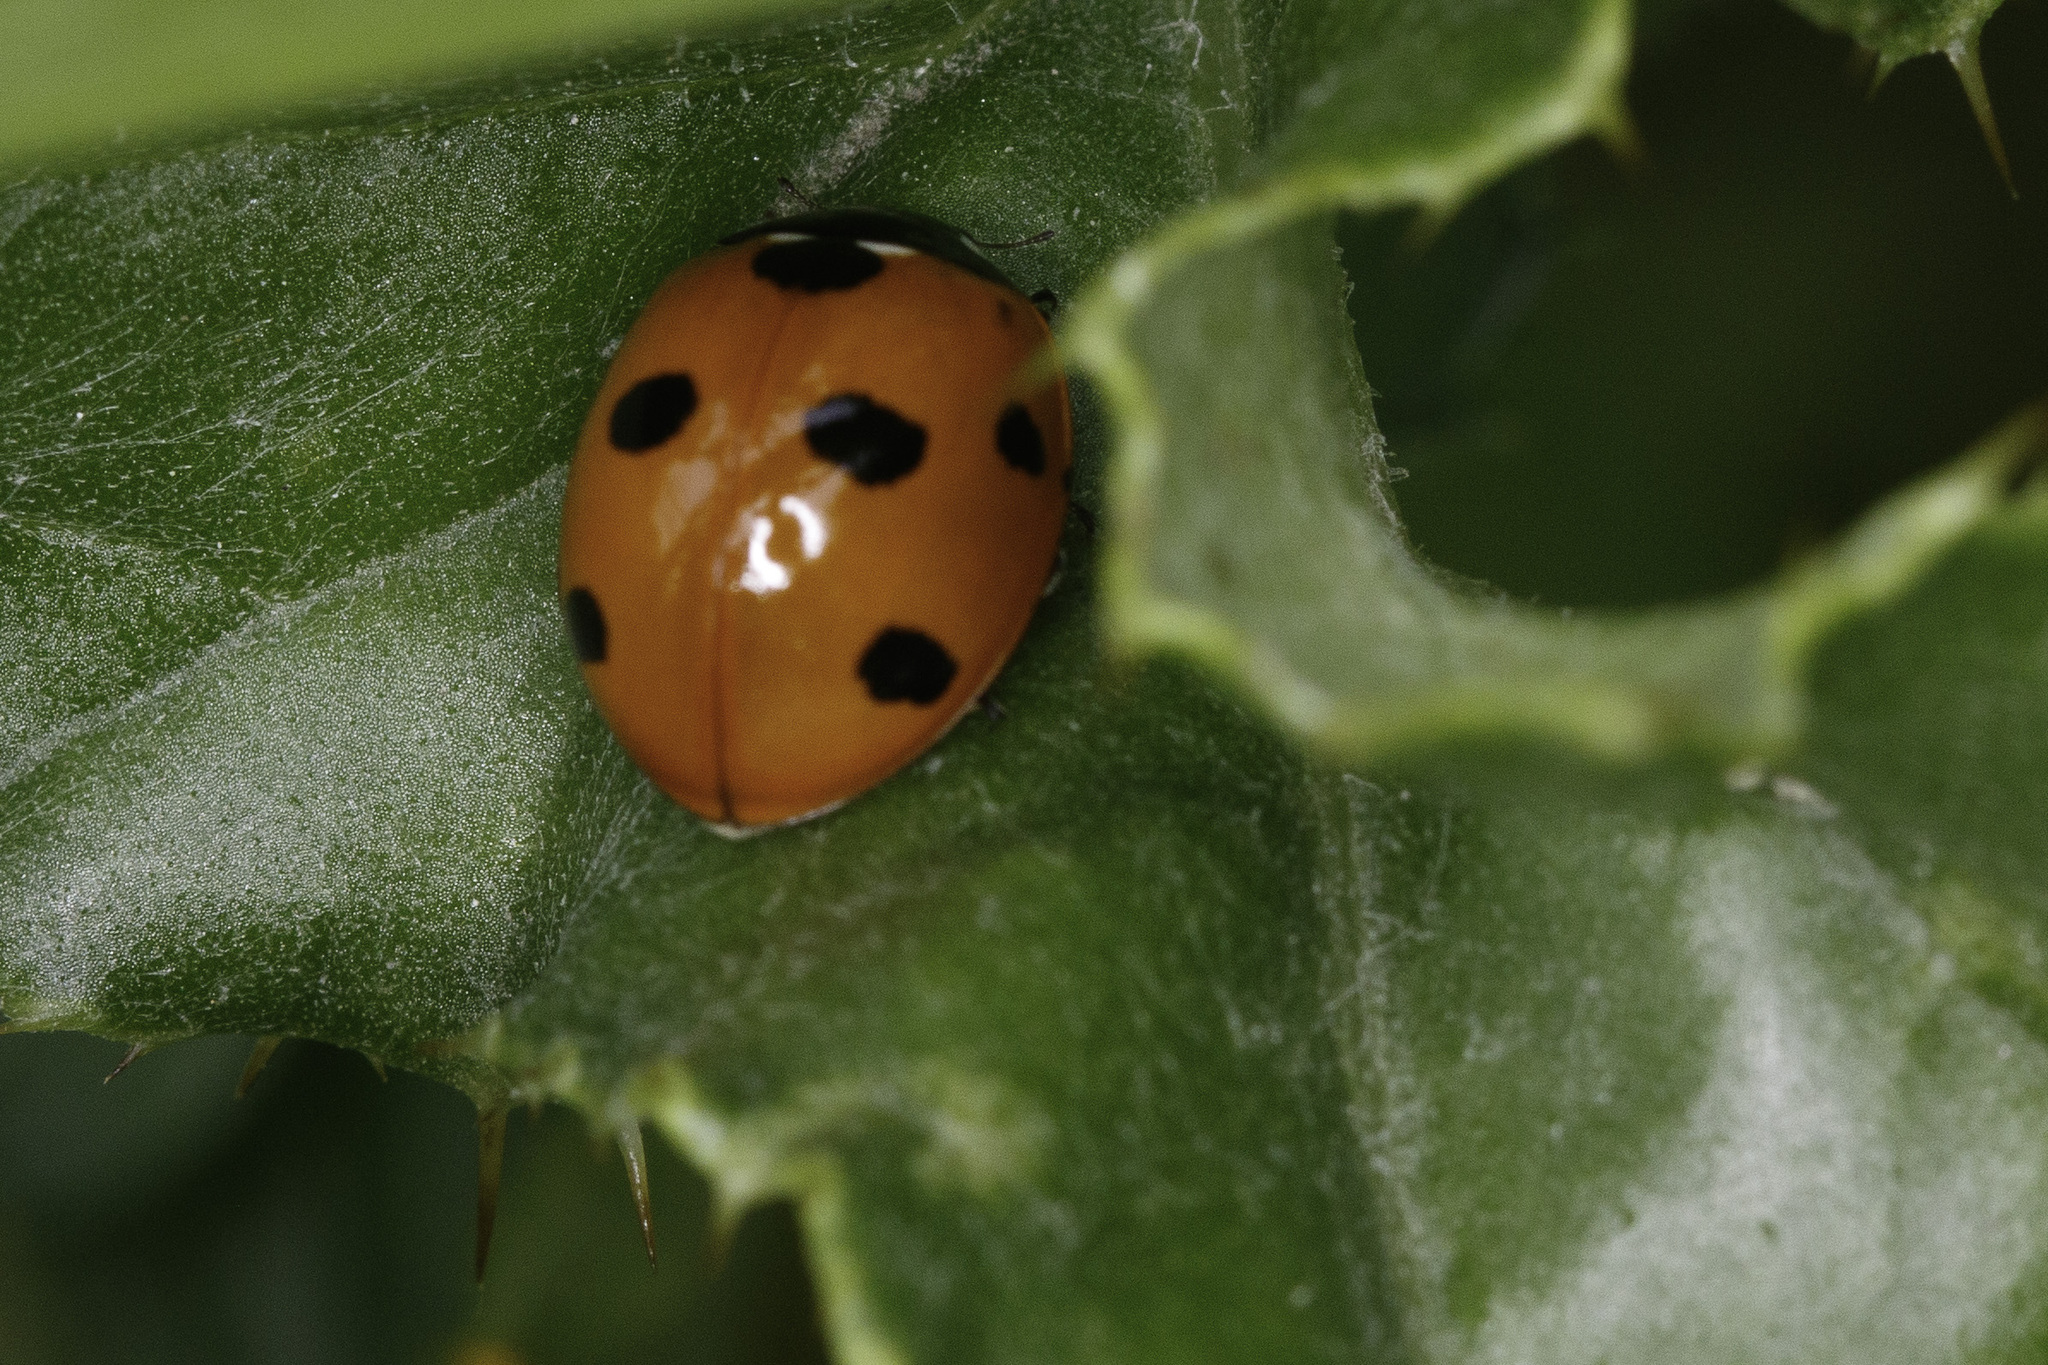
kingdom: Animalia
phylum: Arthropoda
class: Insecta
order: Coleoptera
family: Coccinellidae
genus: Coccinella
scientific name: Coccinella septempunctata
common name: Sevenspotted lady beetle
